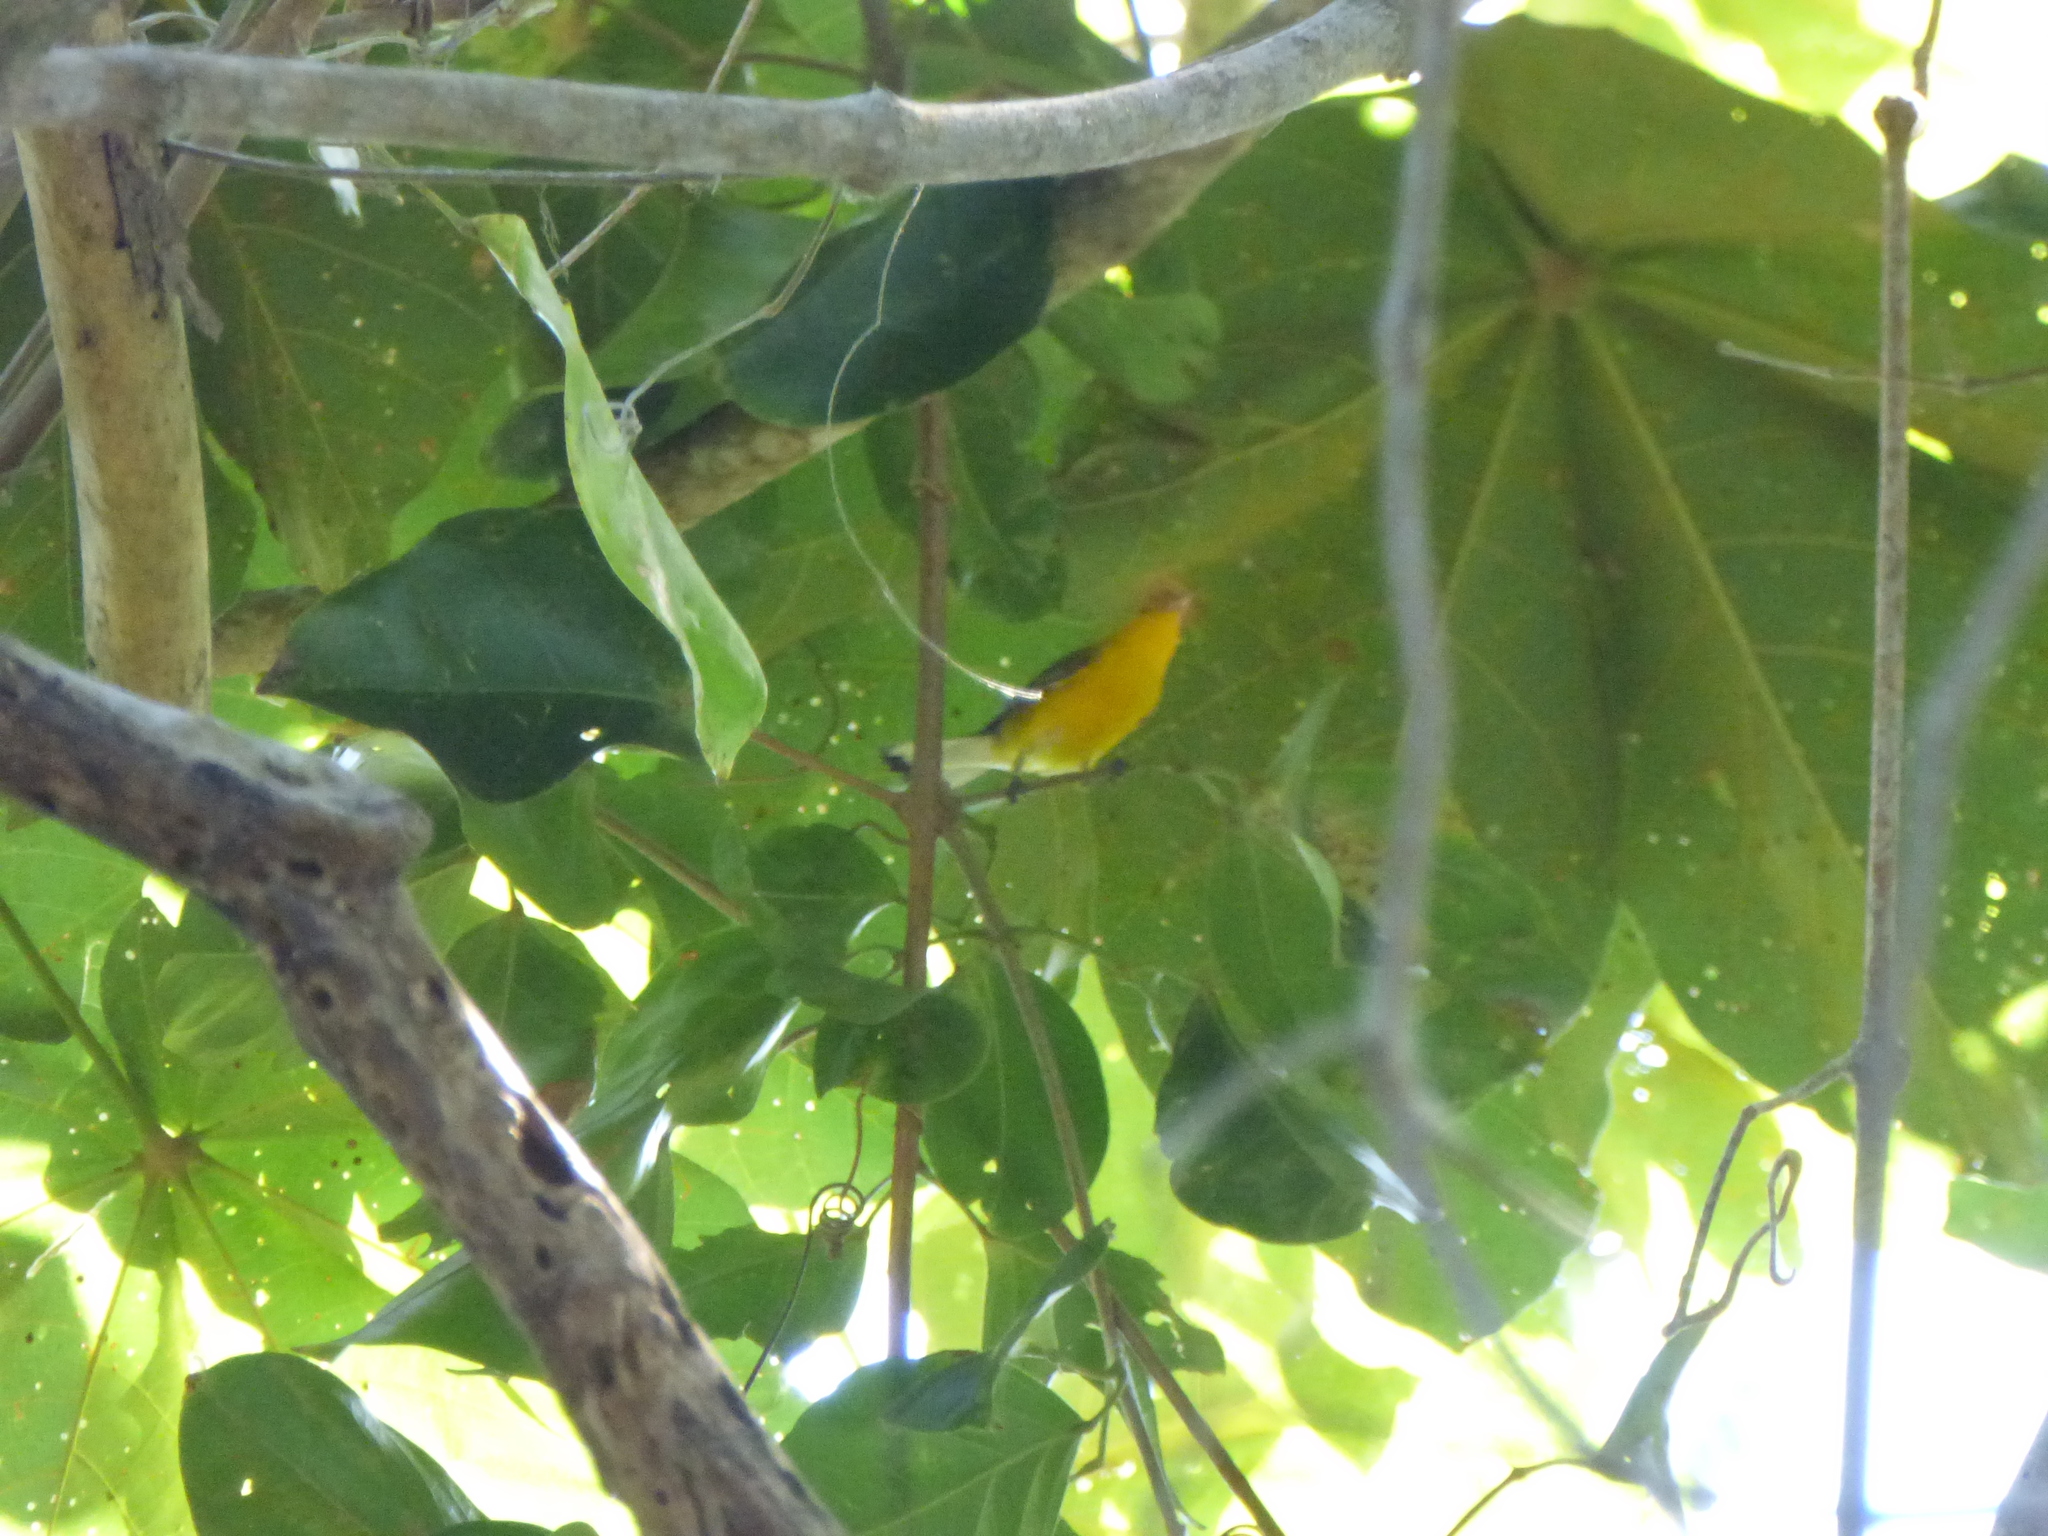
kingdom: Animalia
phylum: Chordata
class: Aves
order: Passeriformes
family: Parulidae
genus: Protonotaria
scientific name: Protonotaria citrea
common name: Prothonotary warbler
